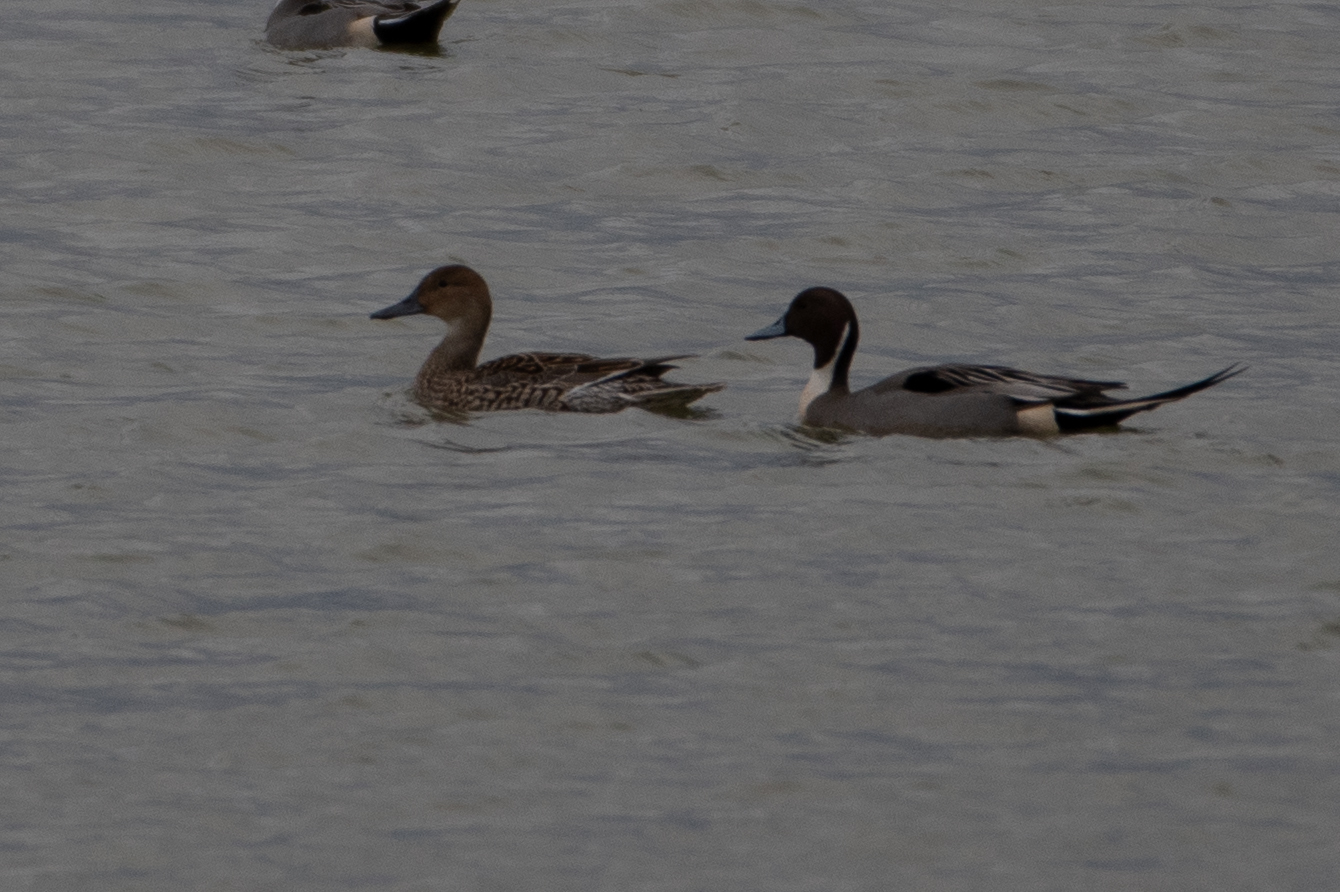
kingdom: Animalia
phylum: Chordata
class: Aves
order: Anseriformes
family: Anatidae
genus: Anas
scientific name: Anas acuta
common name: Northern pintail
